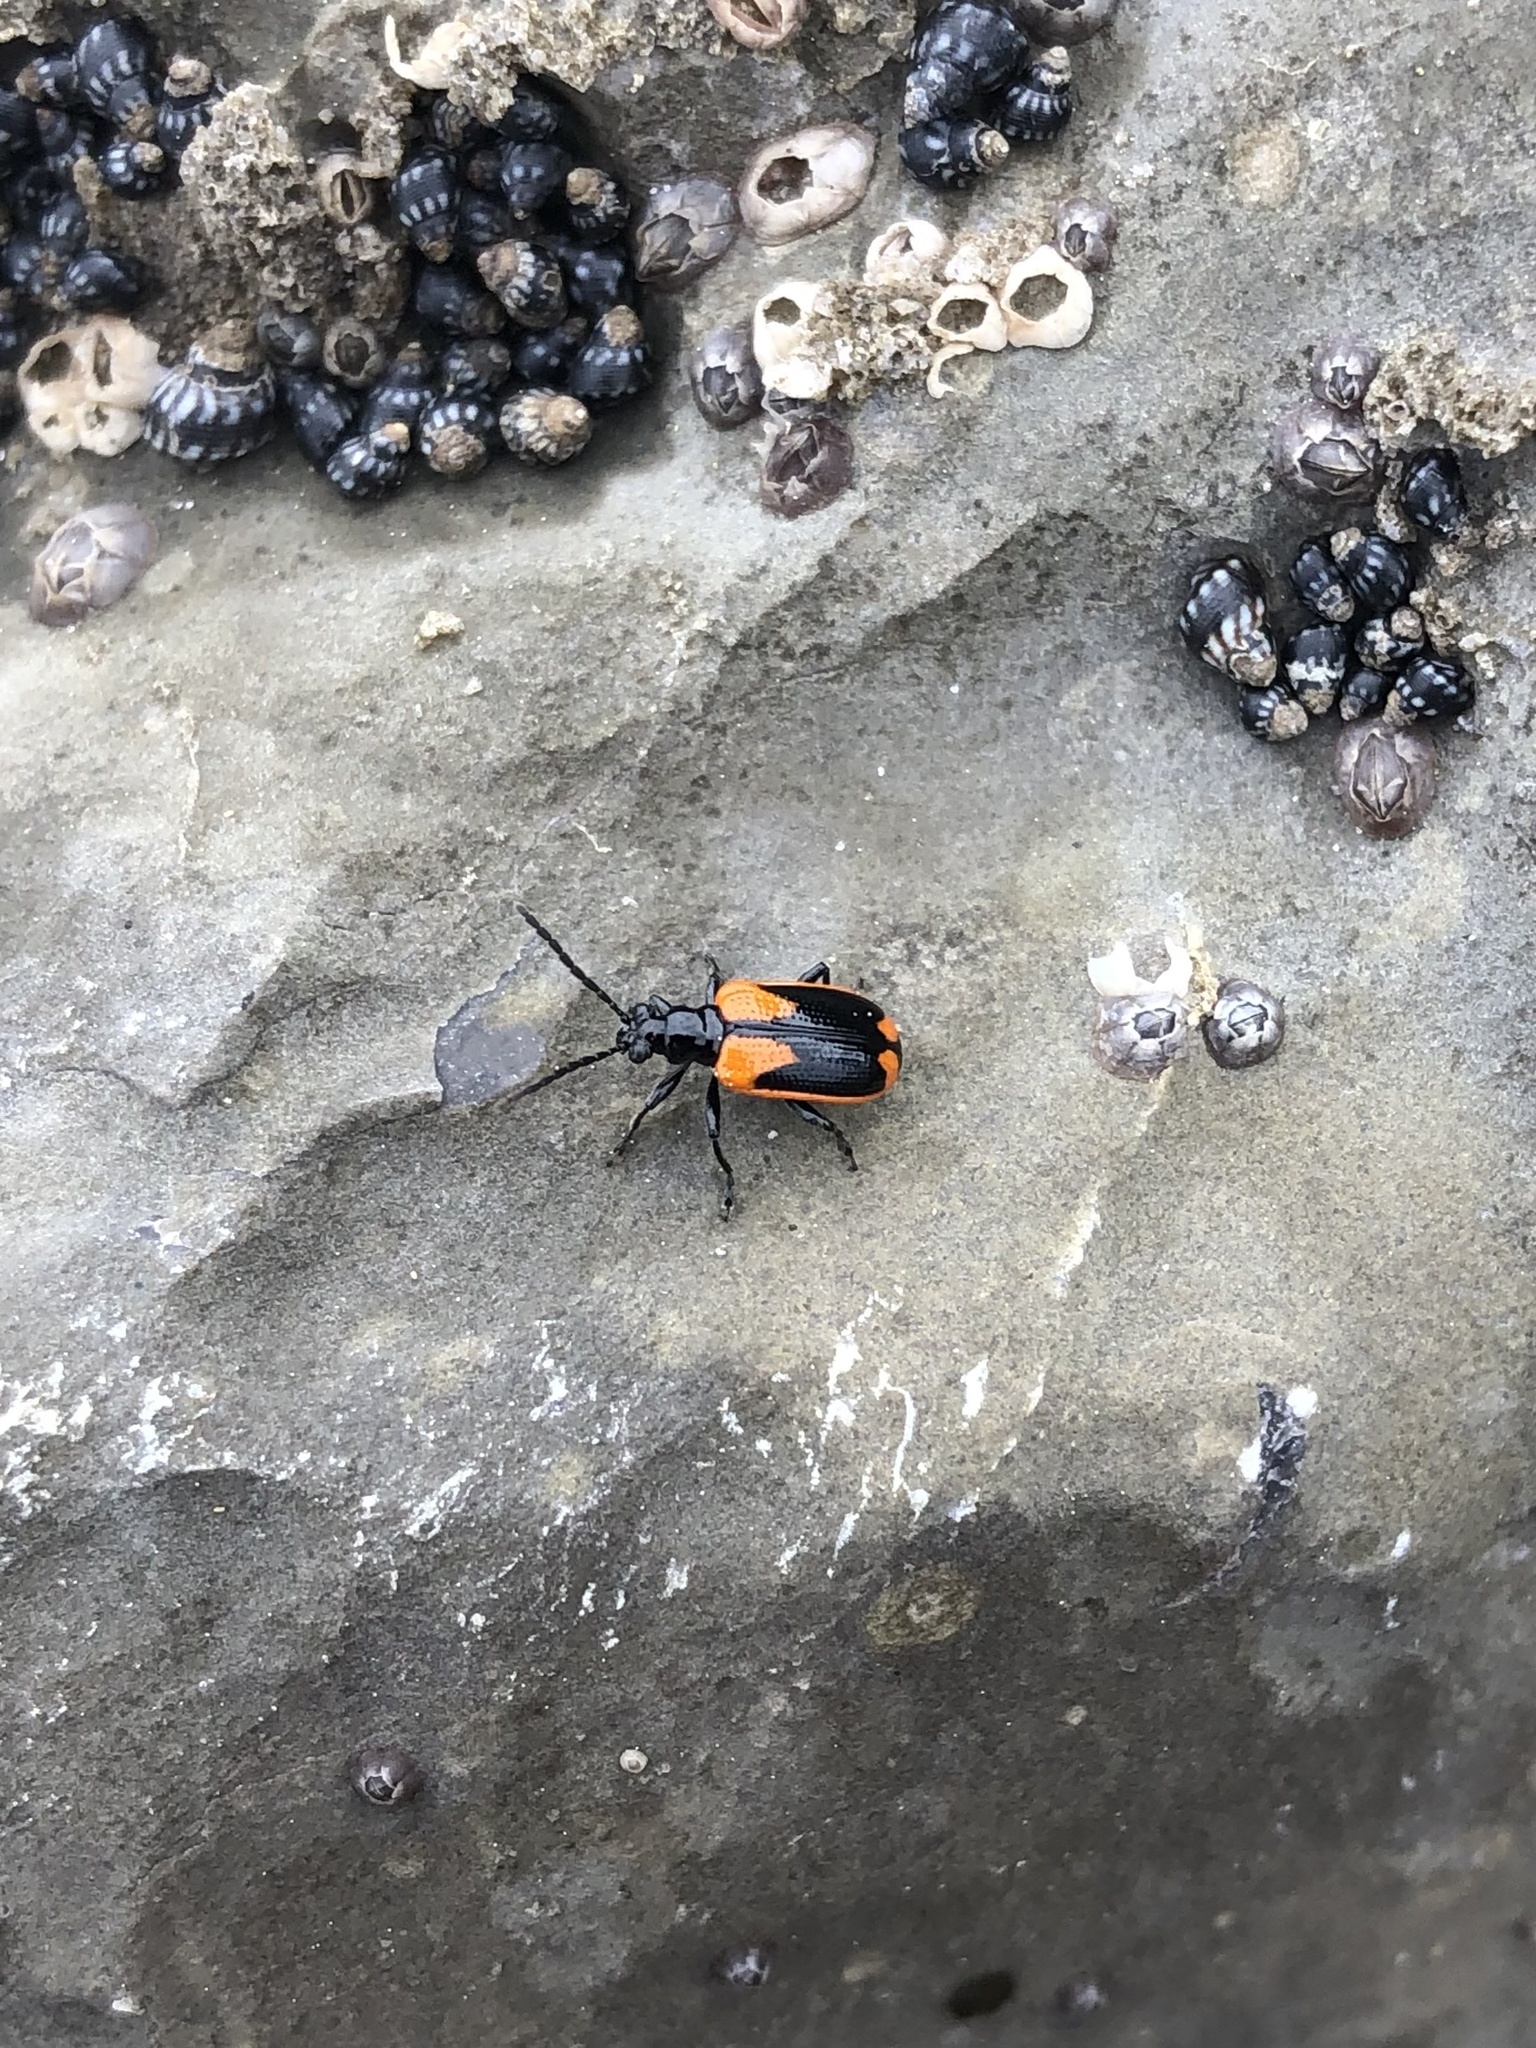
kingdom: Animalia
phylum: Arthropoda
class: Insecta
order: Coleoptera
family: Chrysomelidae
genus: Lema
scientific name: Lema confusa
